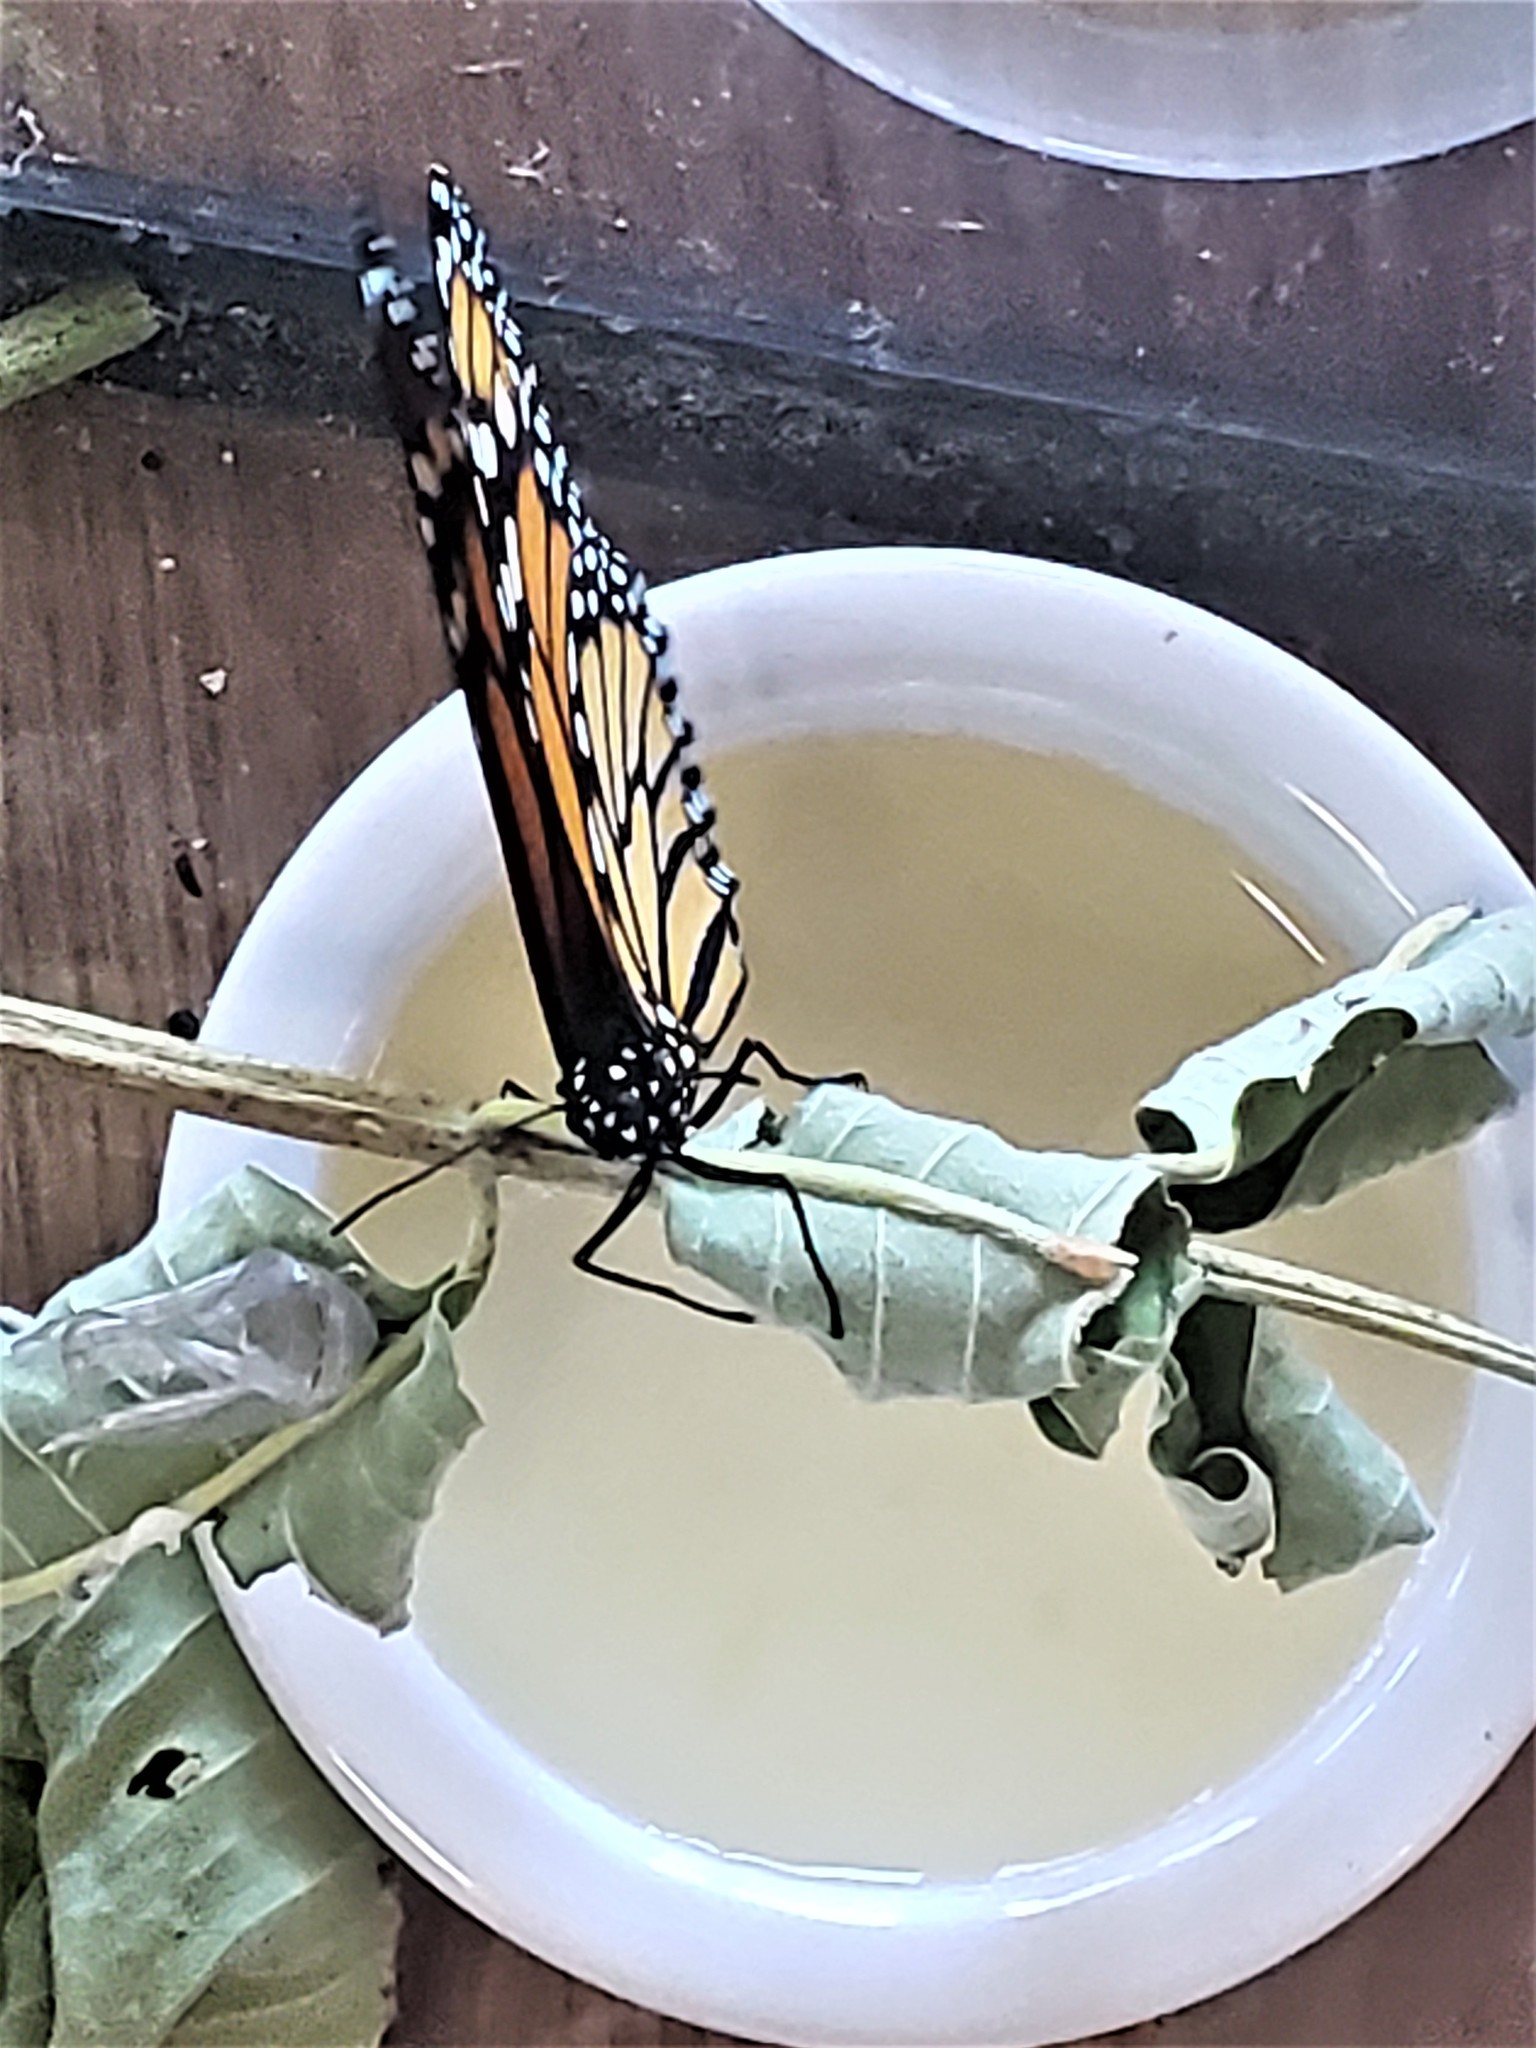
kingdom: Animalia
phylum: Arthropoda
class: Insecta
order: Lepidoptera
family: Nymphalidae
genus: Danaus
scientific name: Danaus plexippus
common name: Monarch
